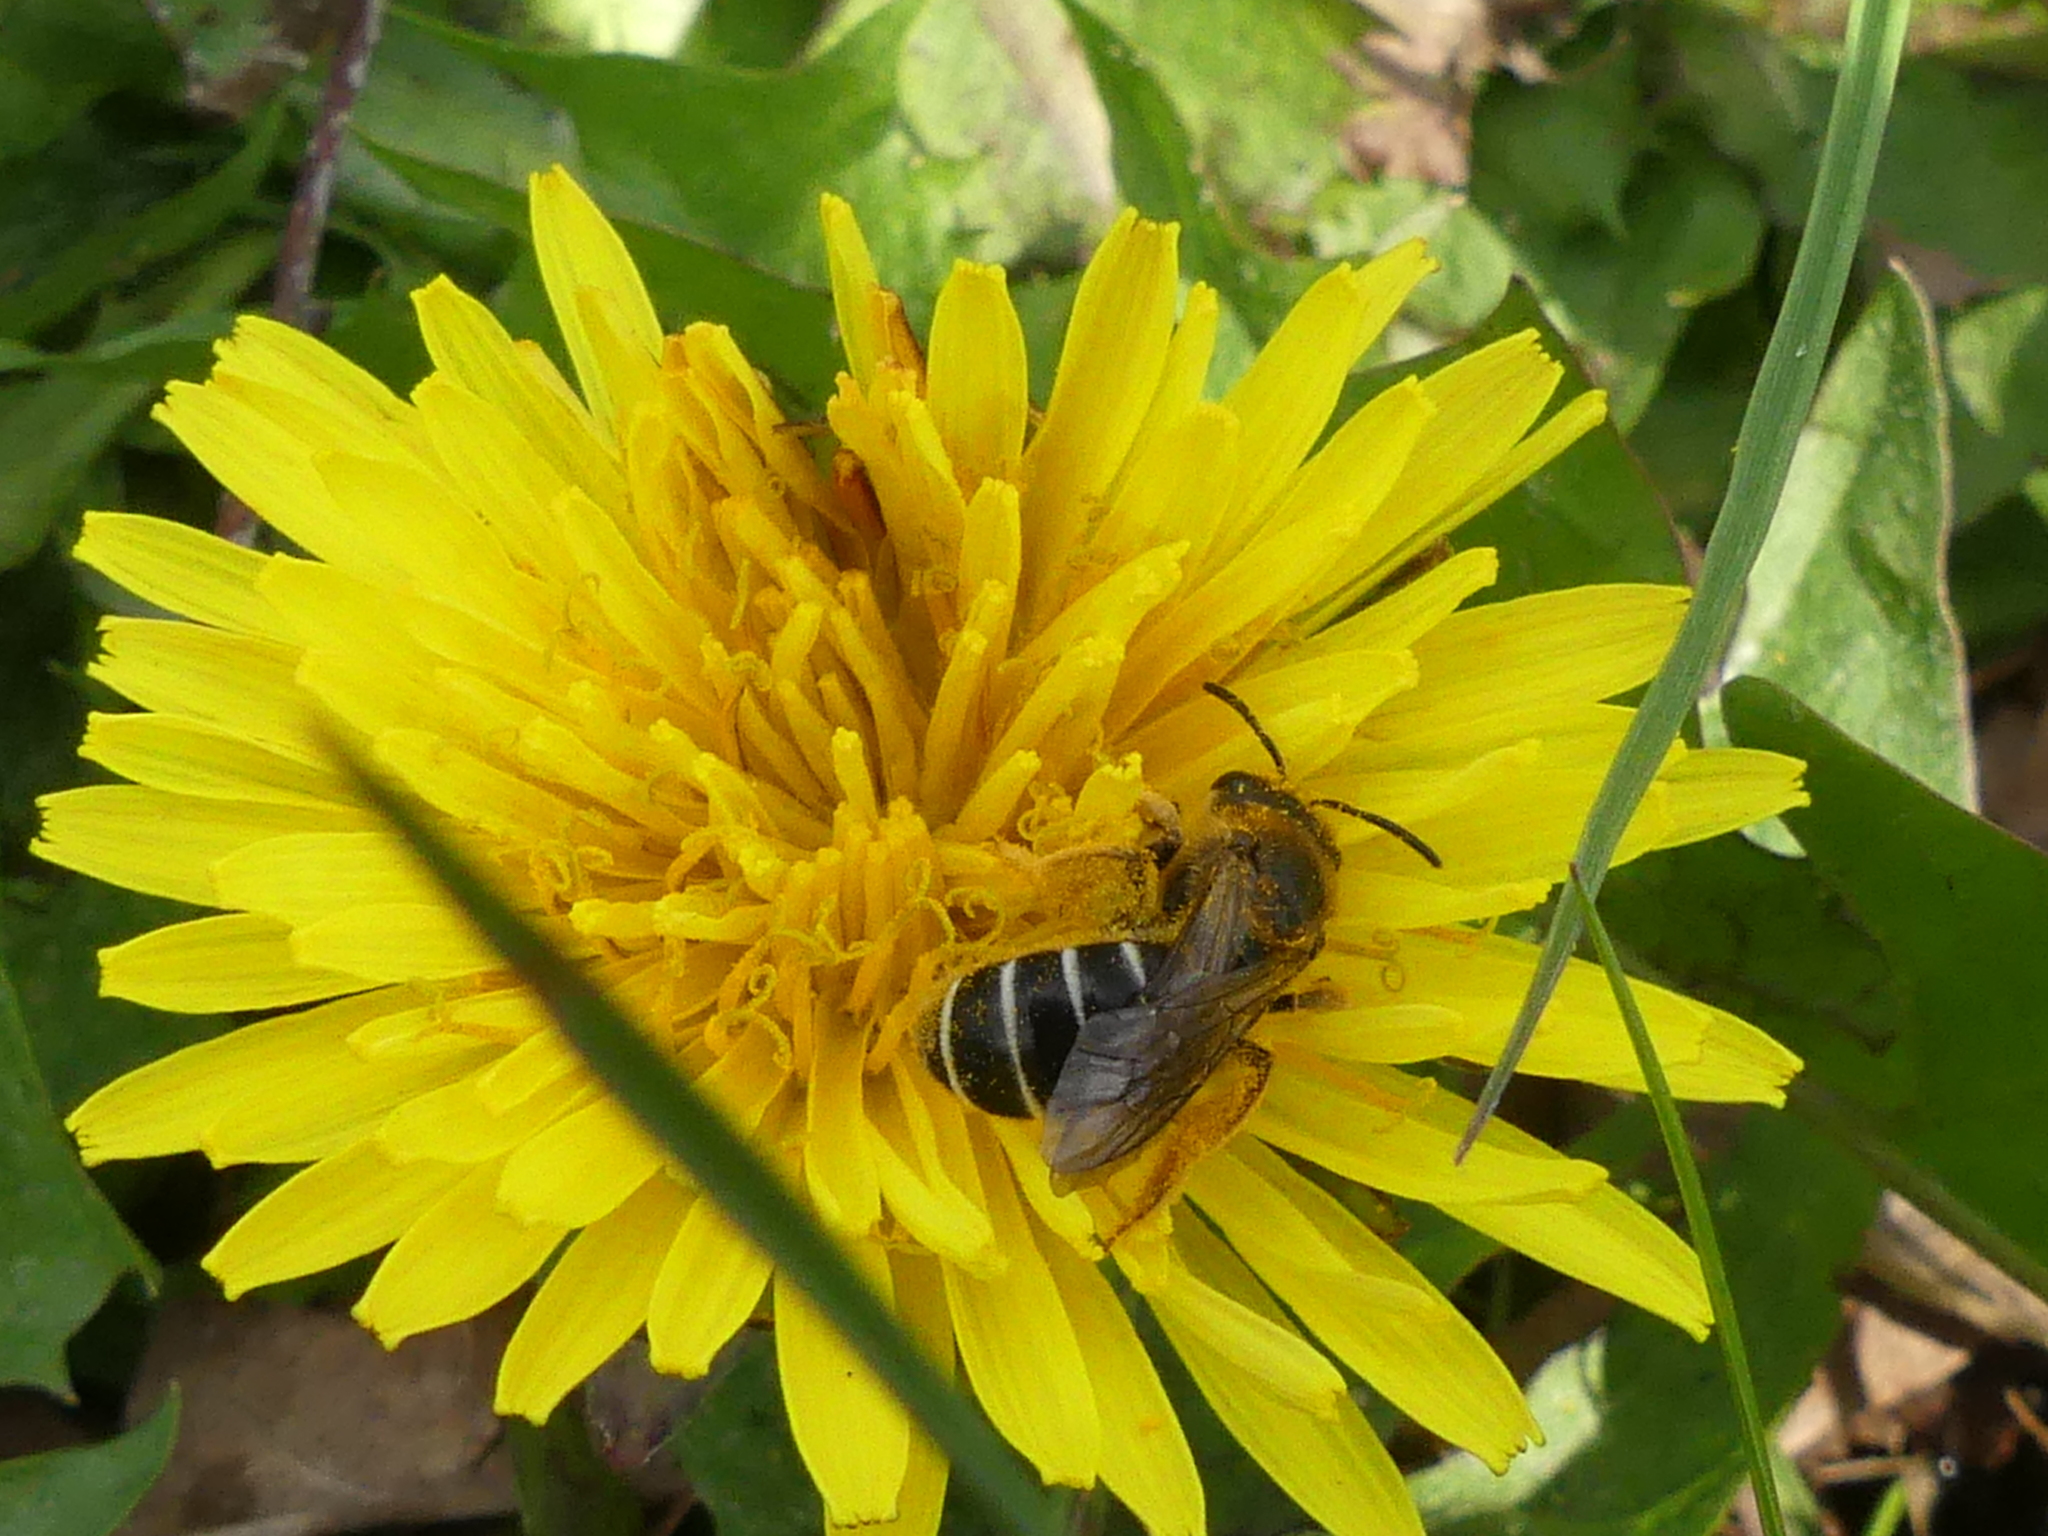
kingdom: Animalia
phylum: Arthropoda
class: Insecta
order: Hymenoptera
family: Halictidae
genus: Halictus
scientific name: Halictus rubicundus
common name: Orange-legged furrow bee
